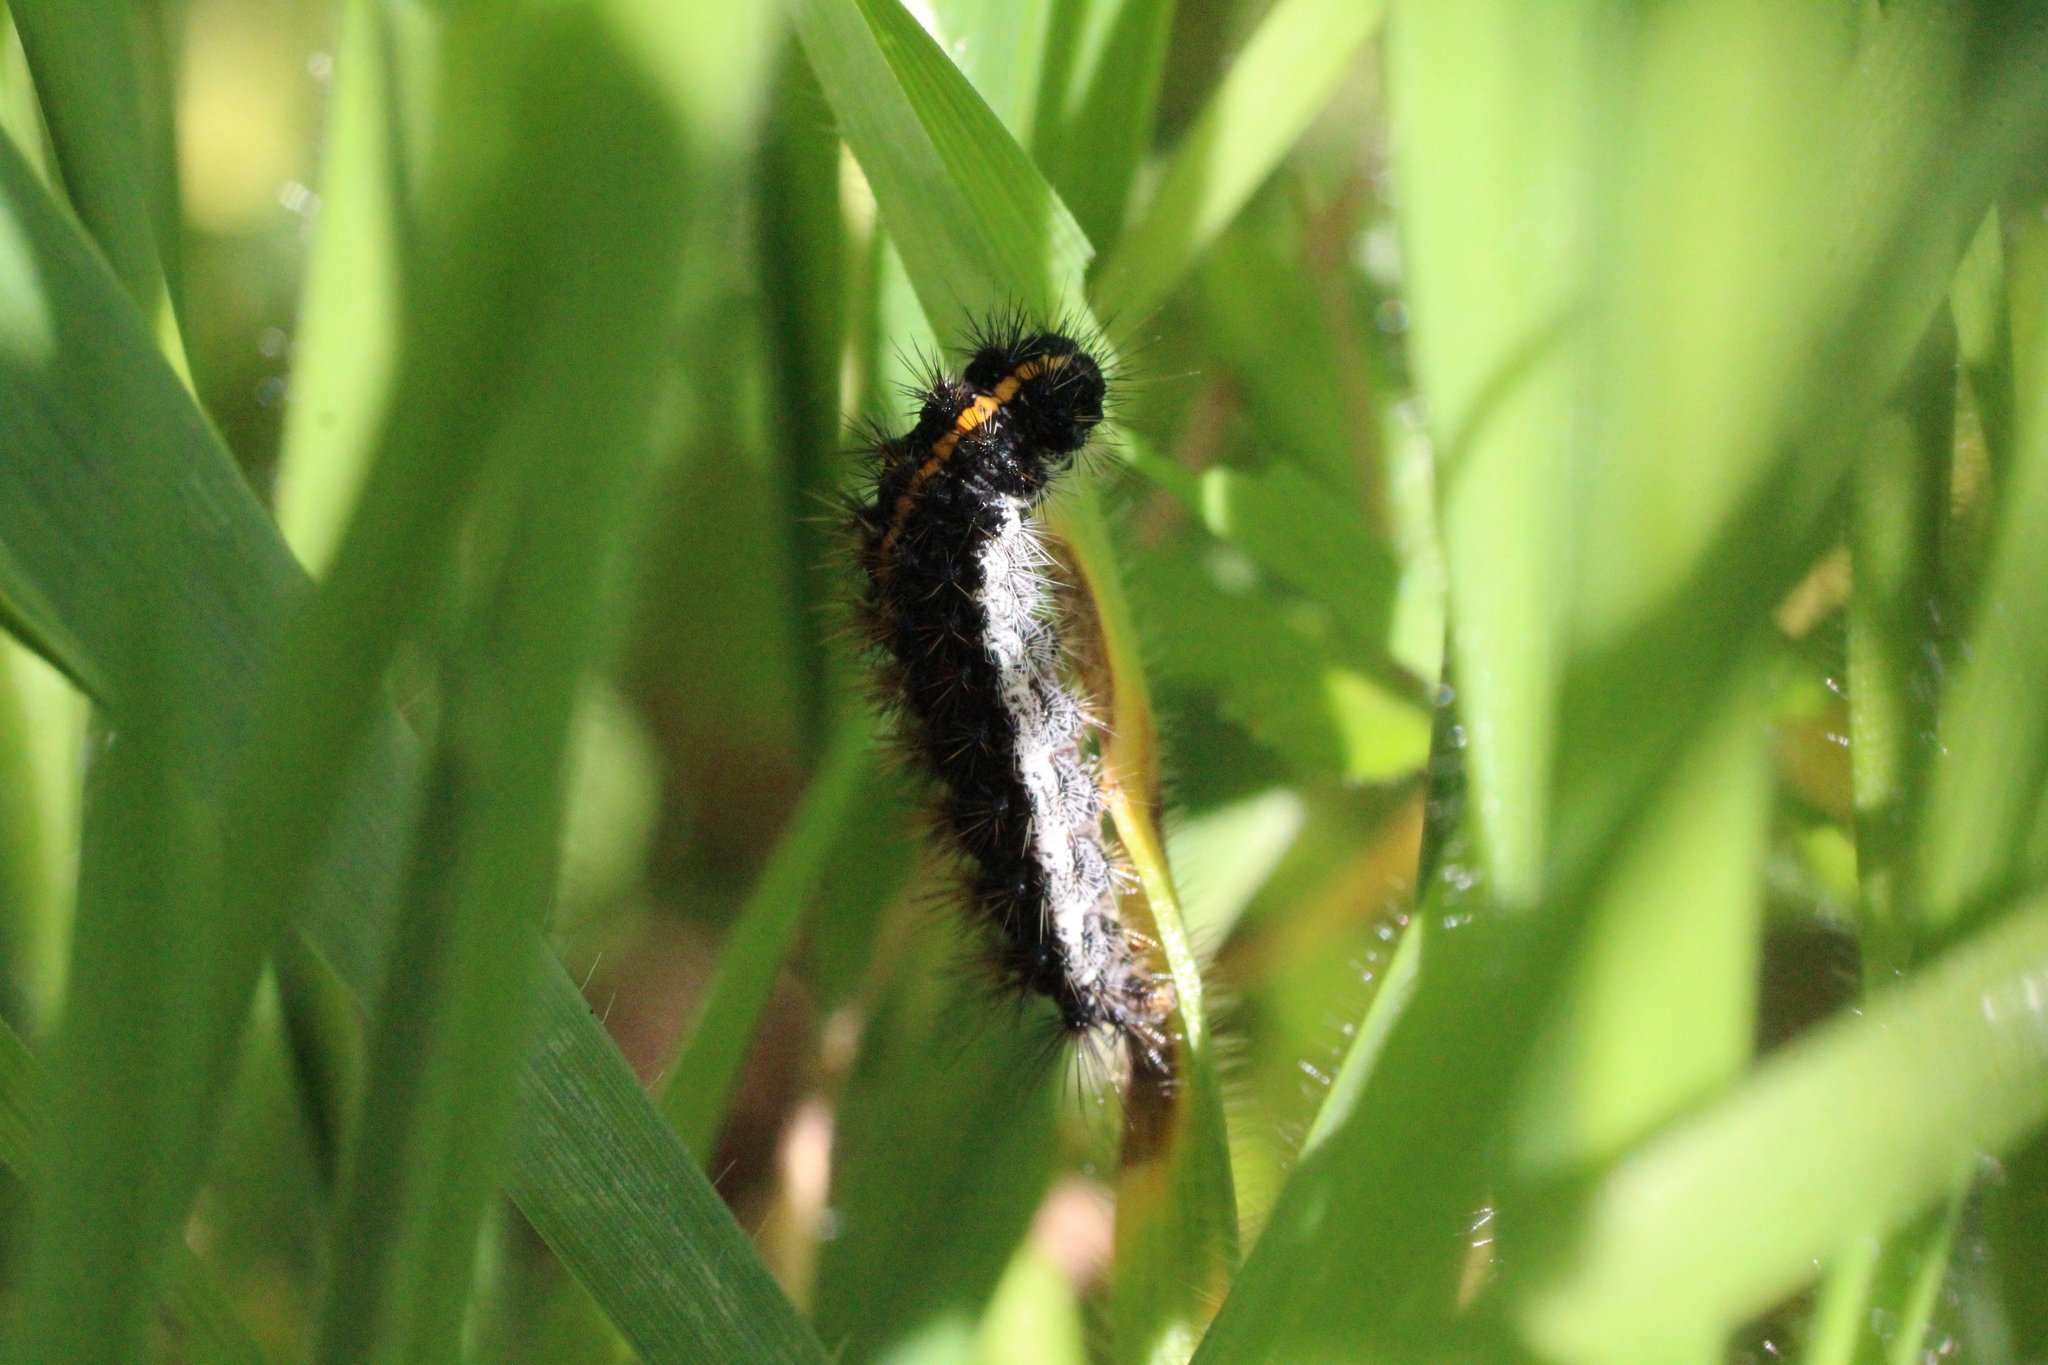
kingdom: Animalia
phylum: Arthropoda
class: Insecta
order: Lepidoptera
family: Erebidae
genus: Coscinia
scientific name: Coscinia Spiris striata
